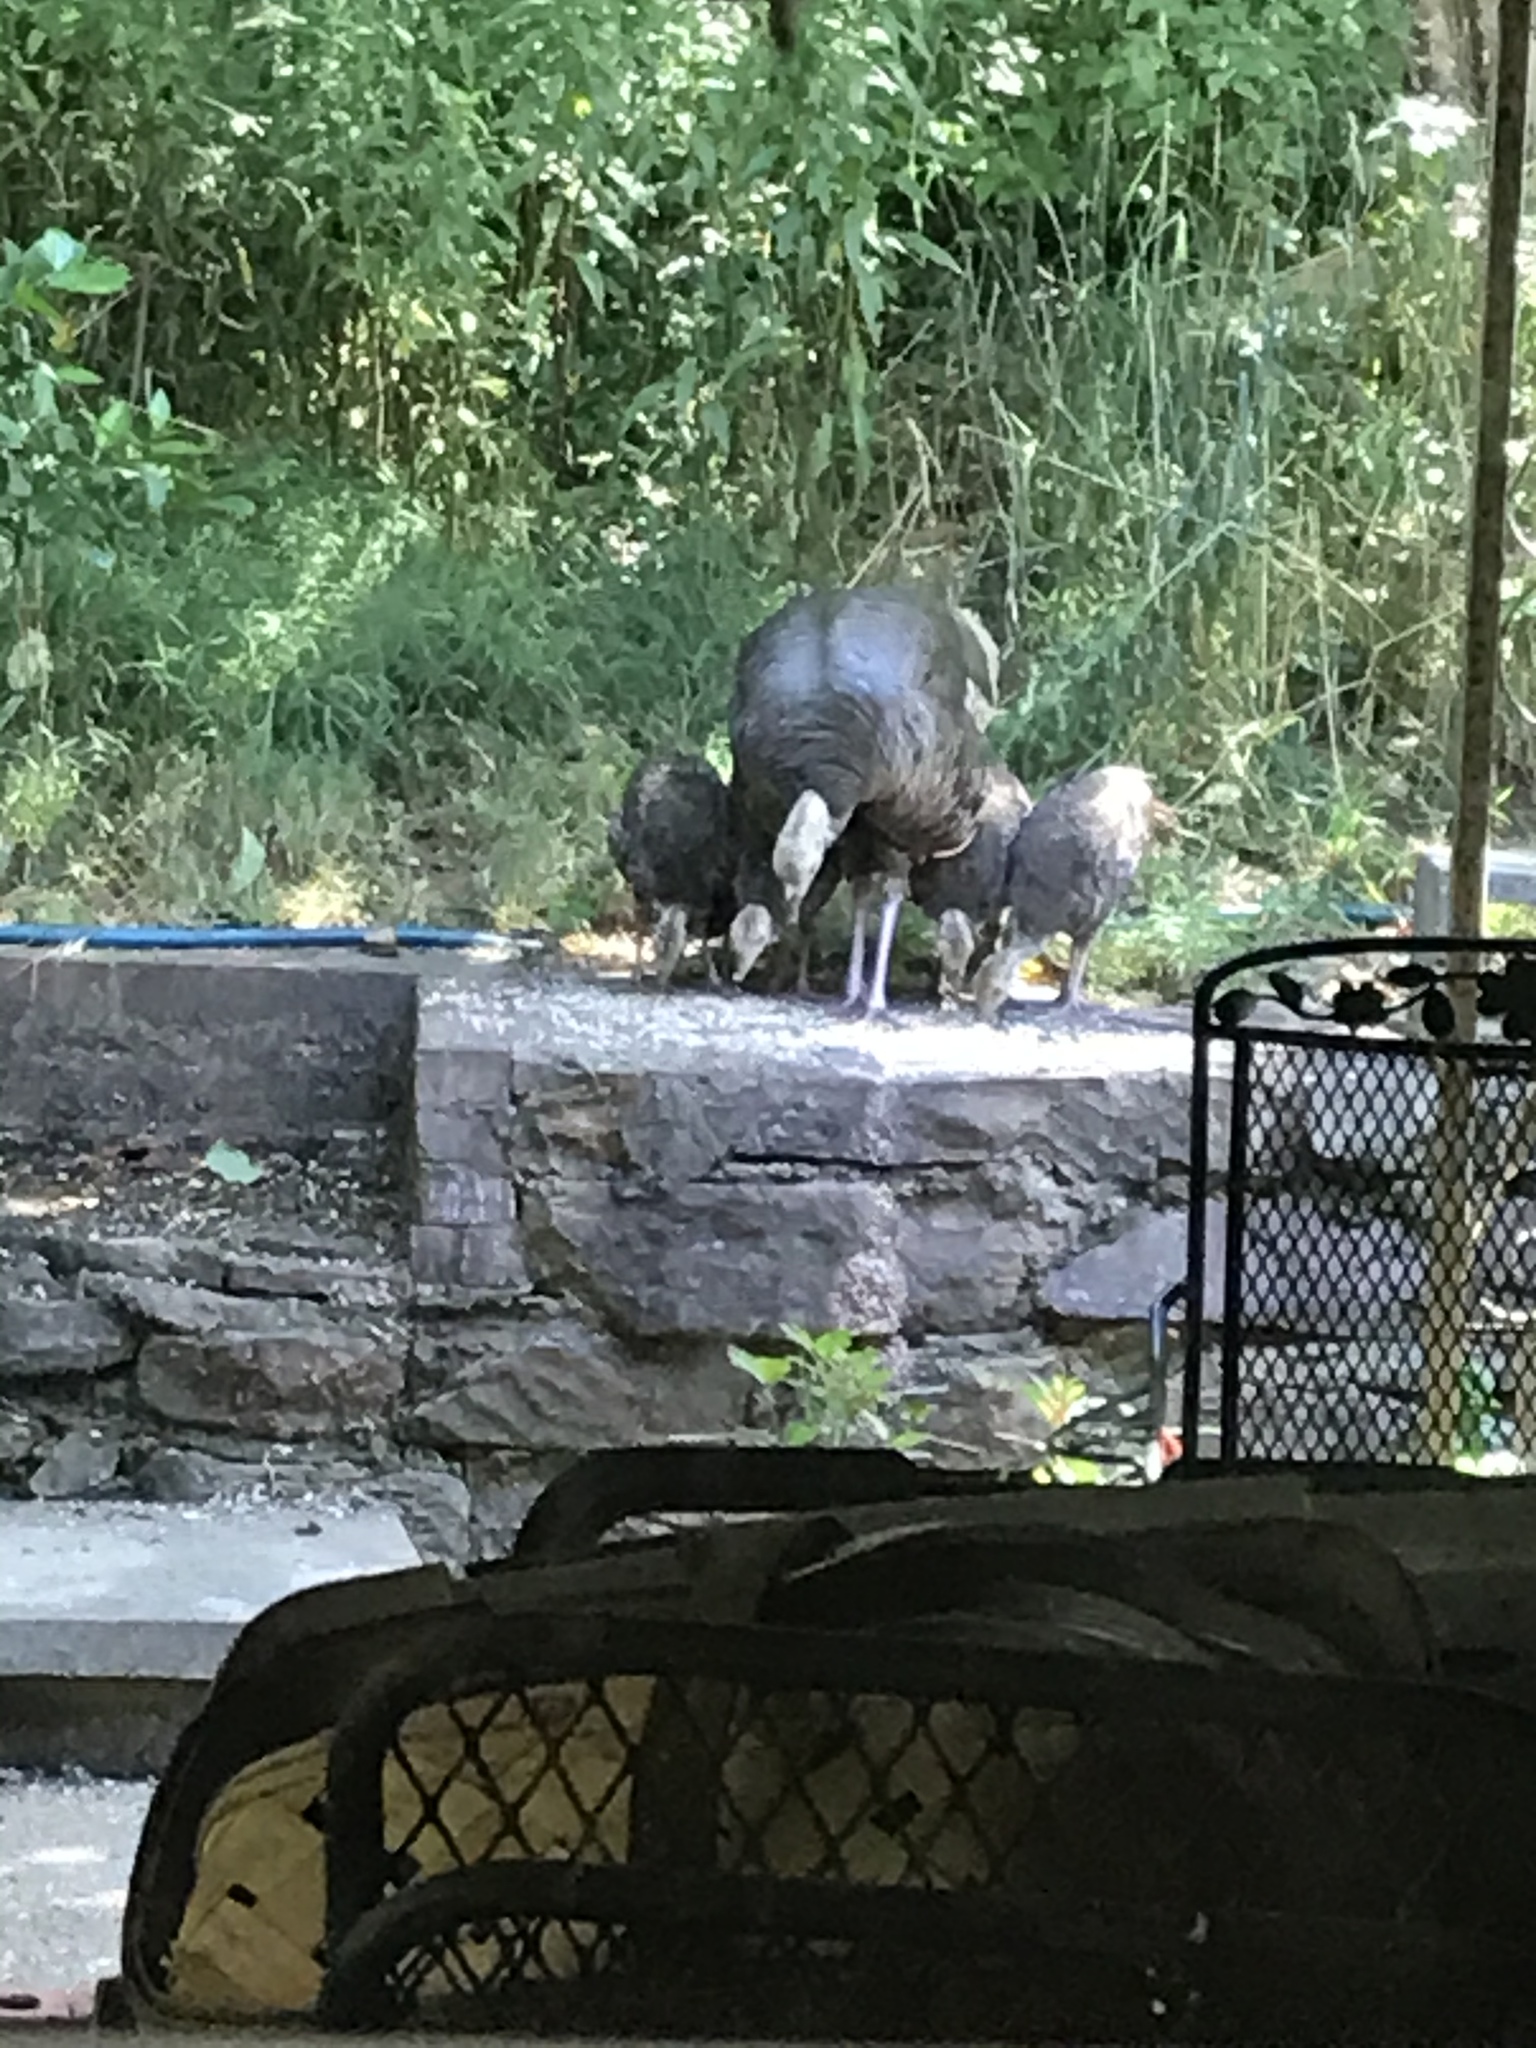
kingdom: Animalia
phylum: Chordata
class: Aves
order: Galliformes
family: Phasianidae
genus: Meleagris
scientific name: Meleagris gallopavo
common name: Wild turkey
